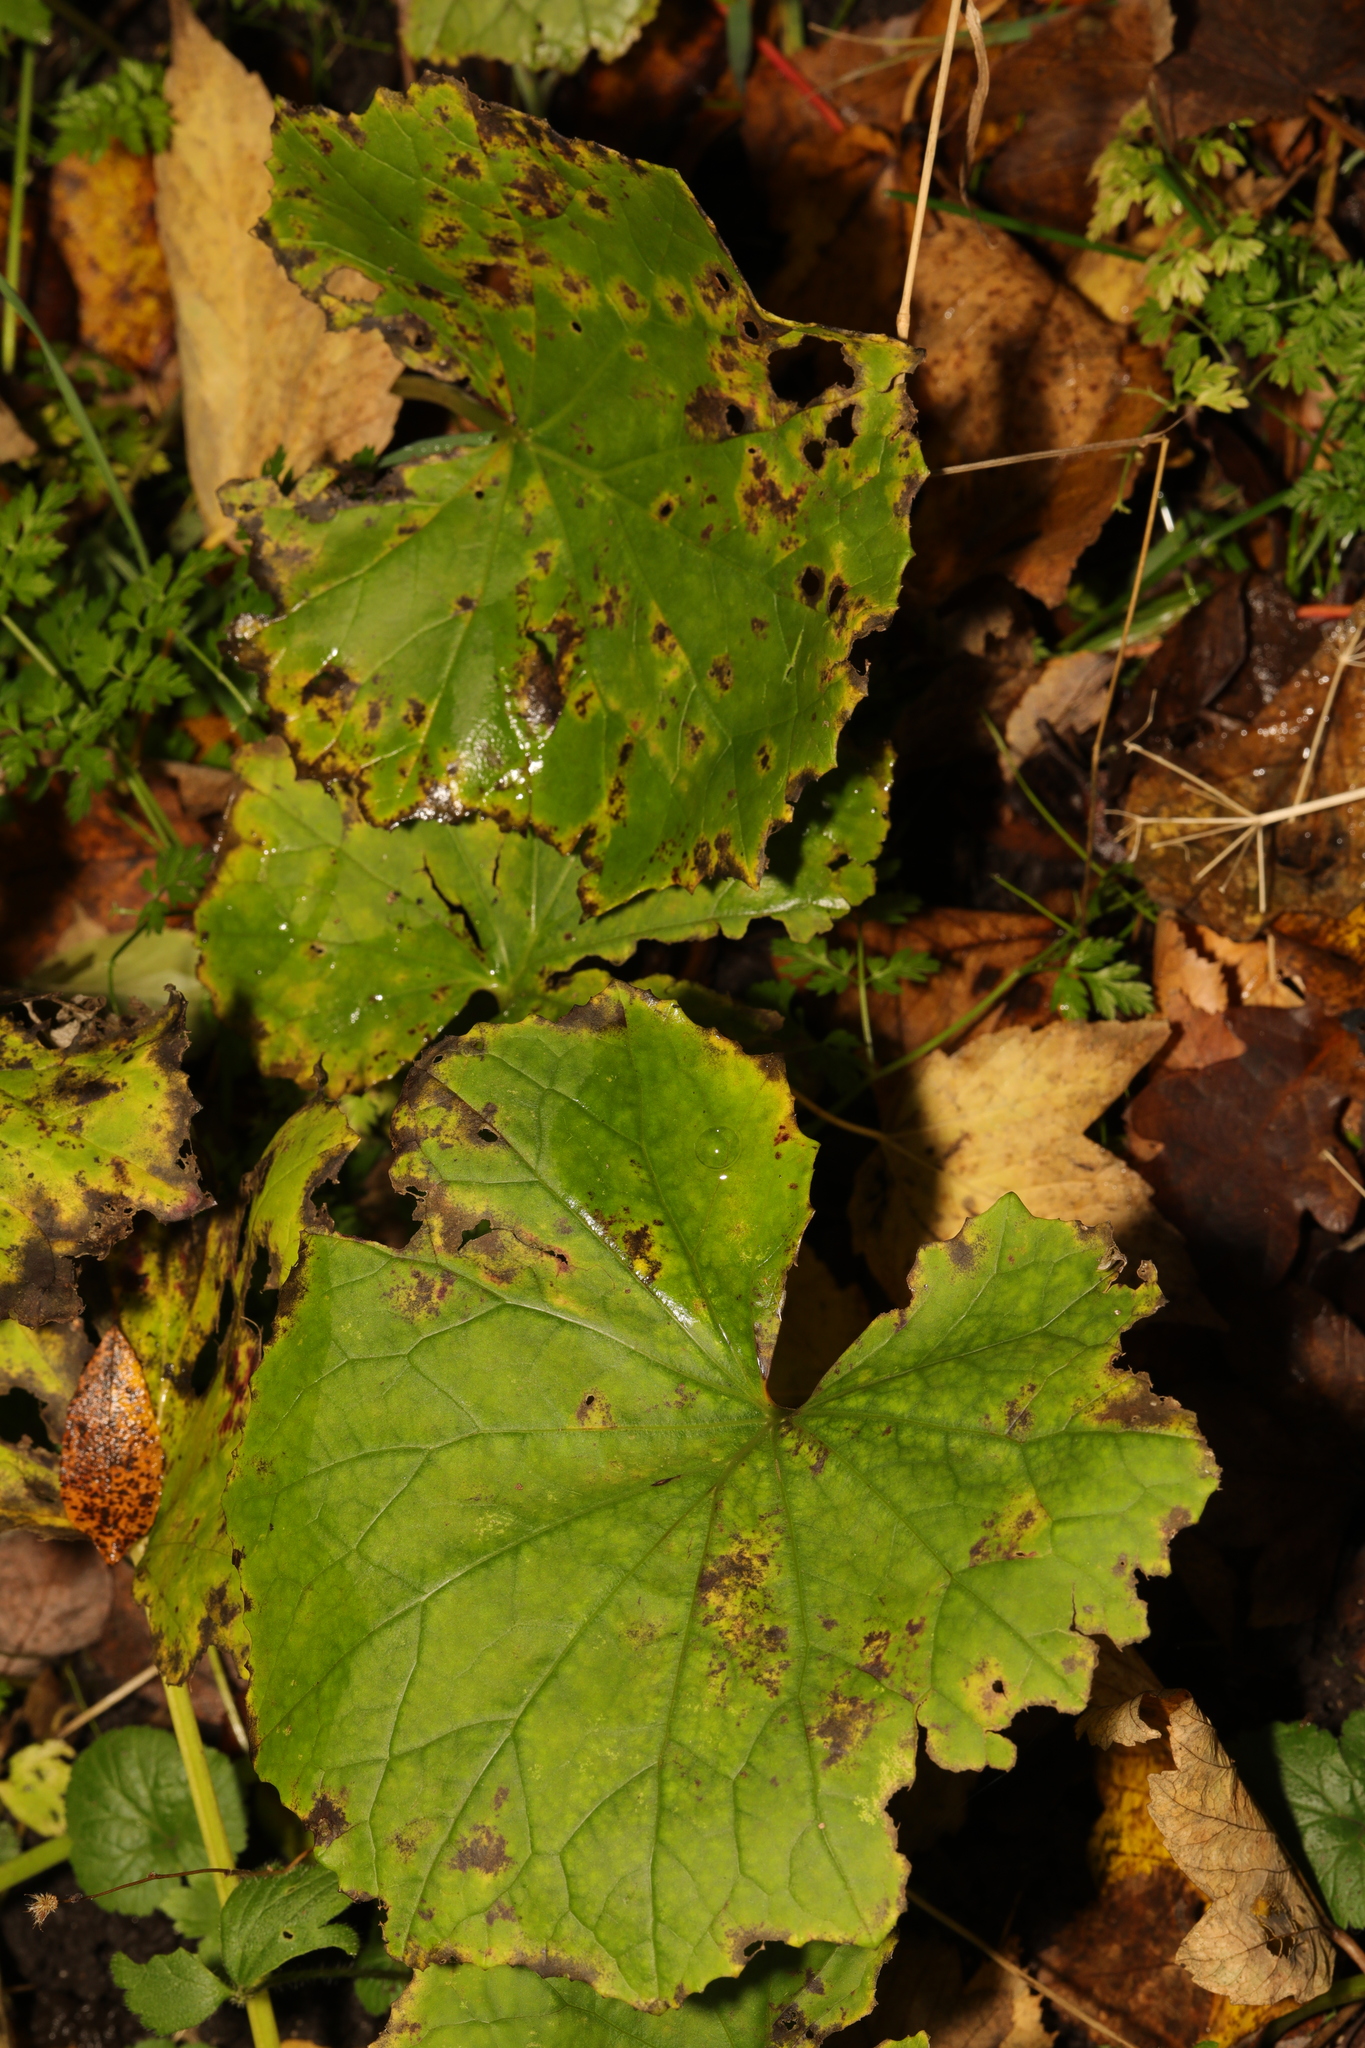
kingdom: Plantae
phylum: Tracheophyta
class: Magnoliopsida
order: Asterales
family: Asteraceae
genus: Tussilago
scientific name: Tussilago farfara
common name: Coltsfoot
